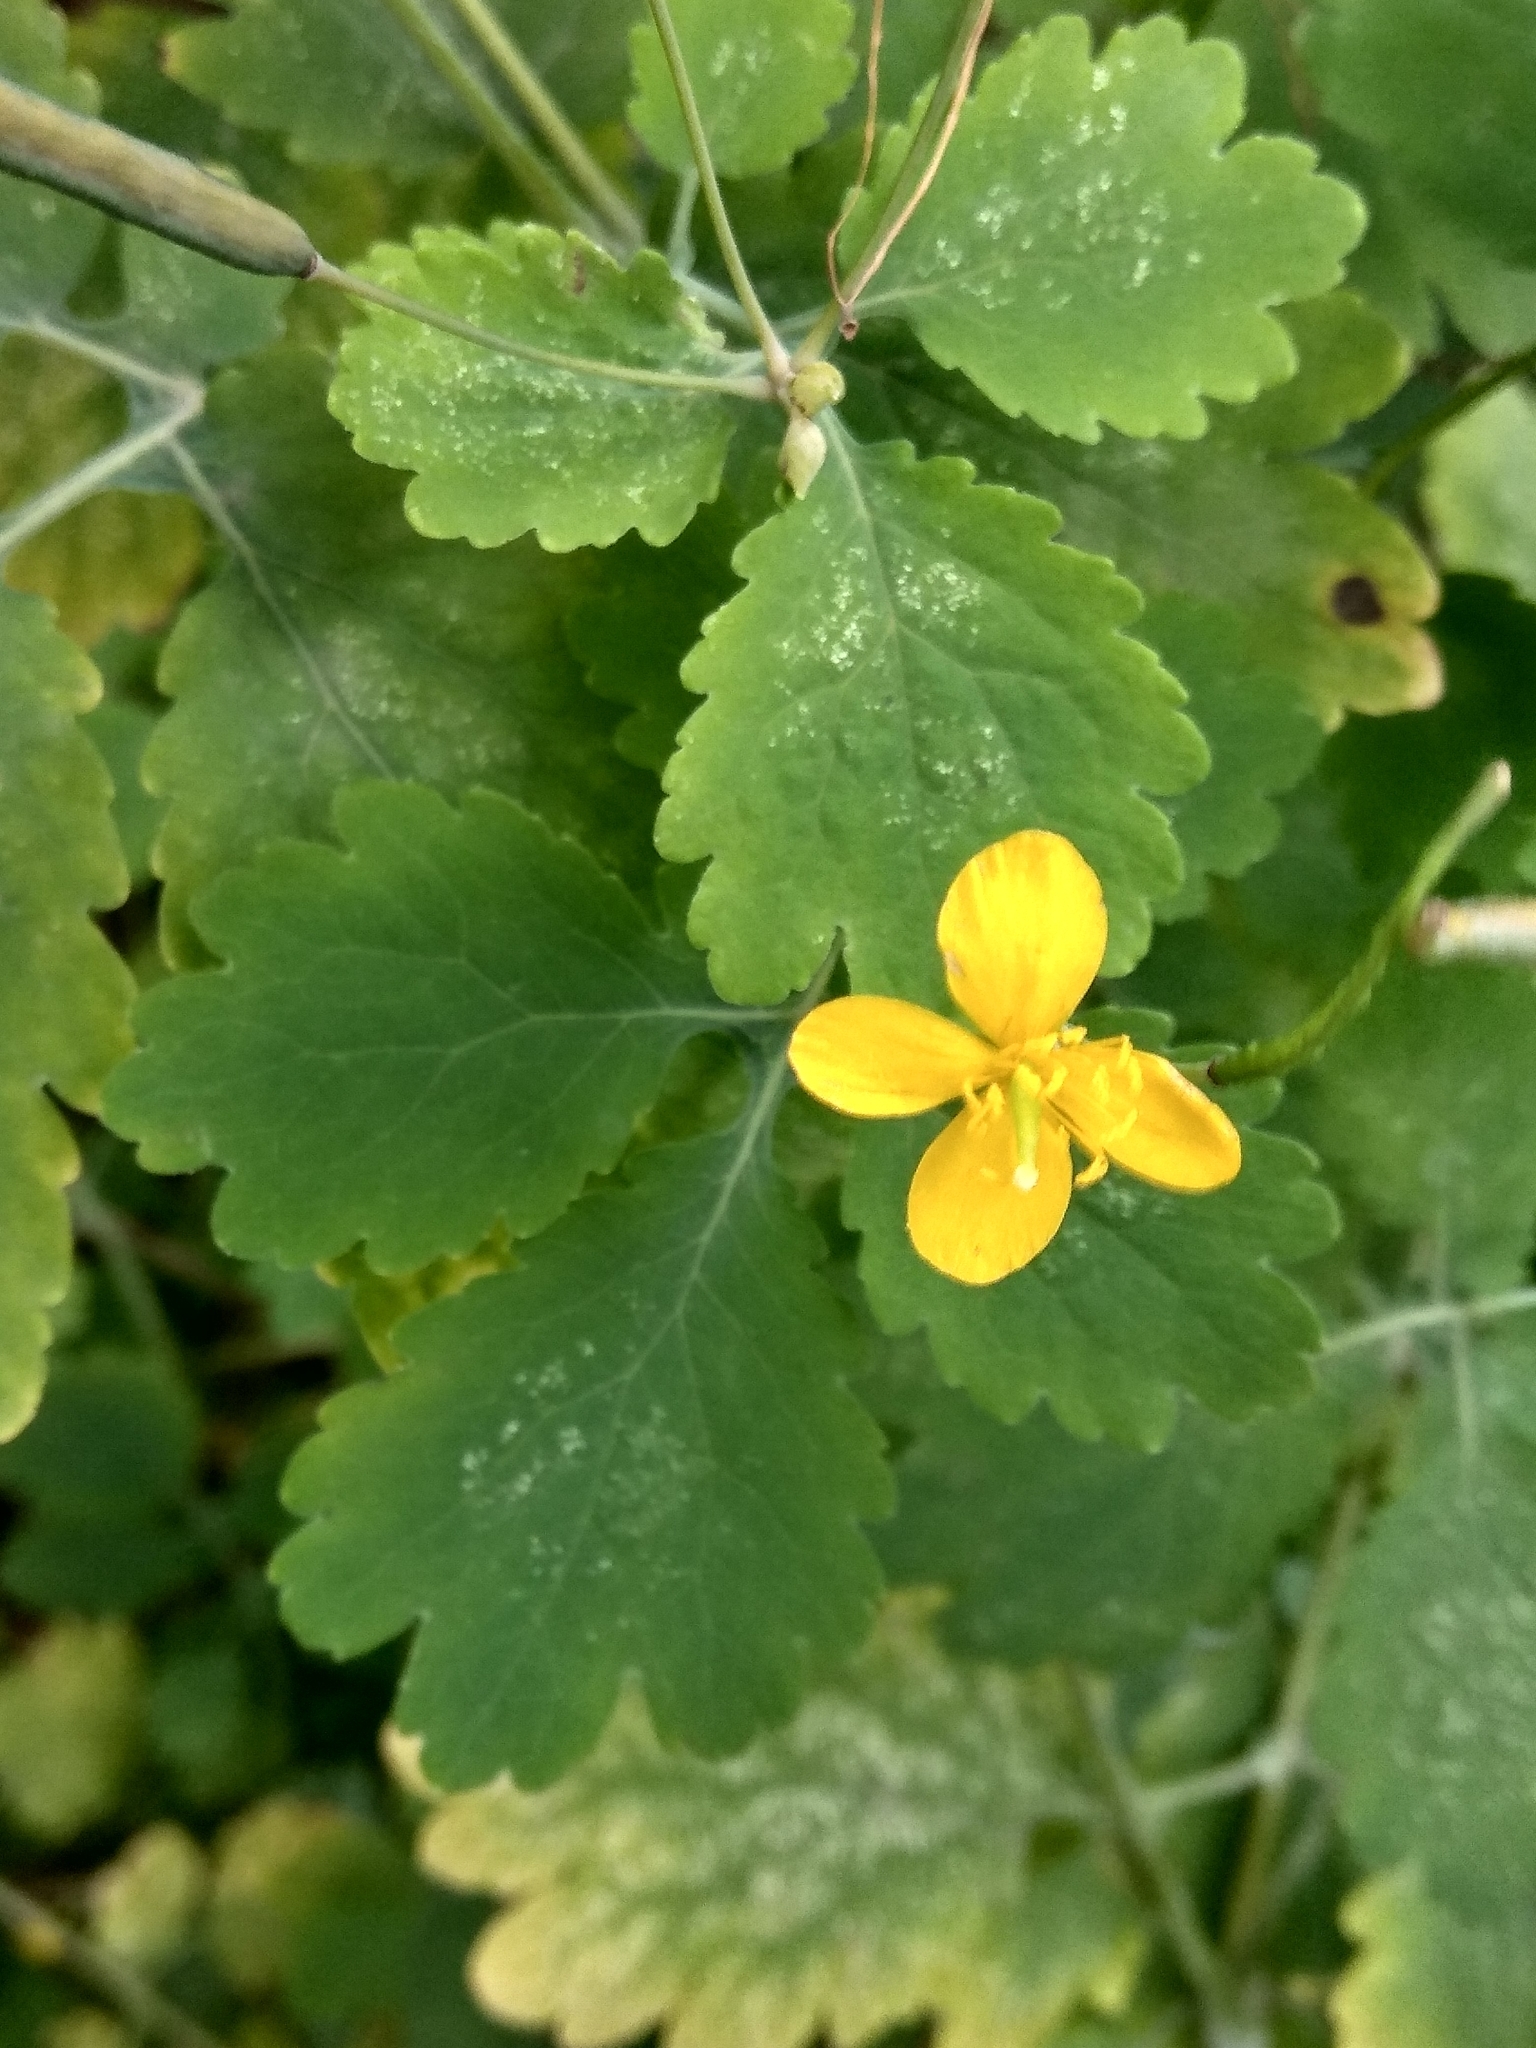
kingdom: Plantae
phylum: Tracheophyta
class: Magnoliopsida
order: Ranunculales
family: Papaveraceae
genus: Chelidonium
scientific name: Chelidonium majus
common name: Greater celandine
